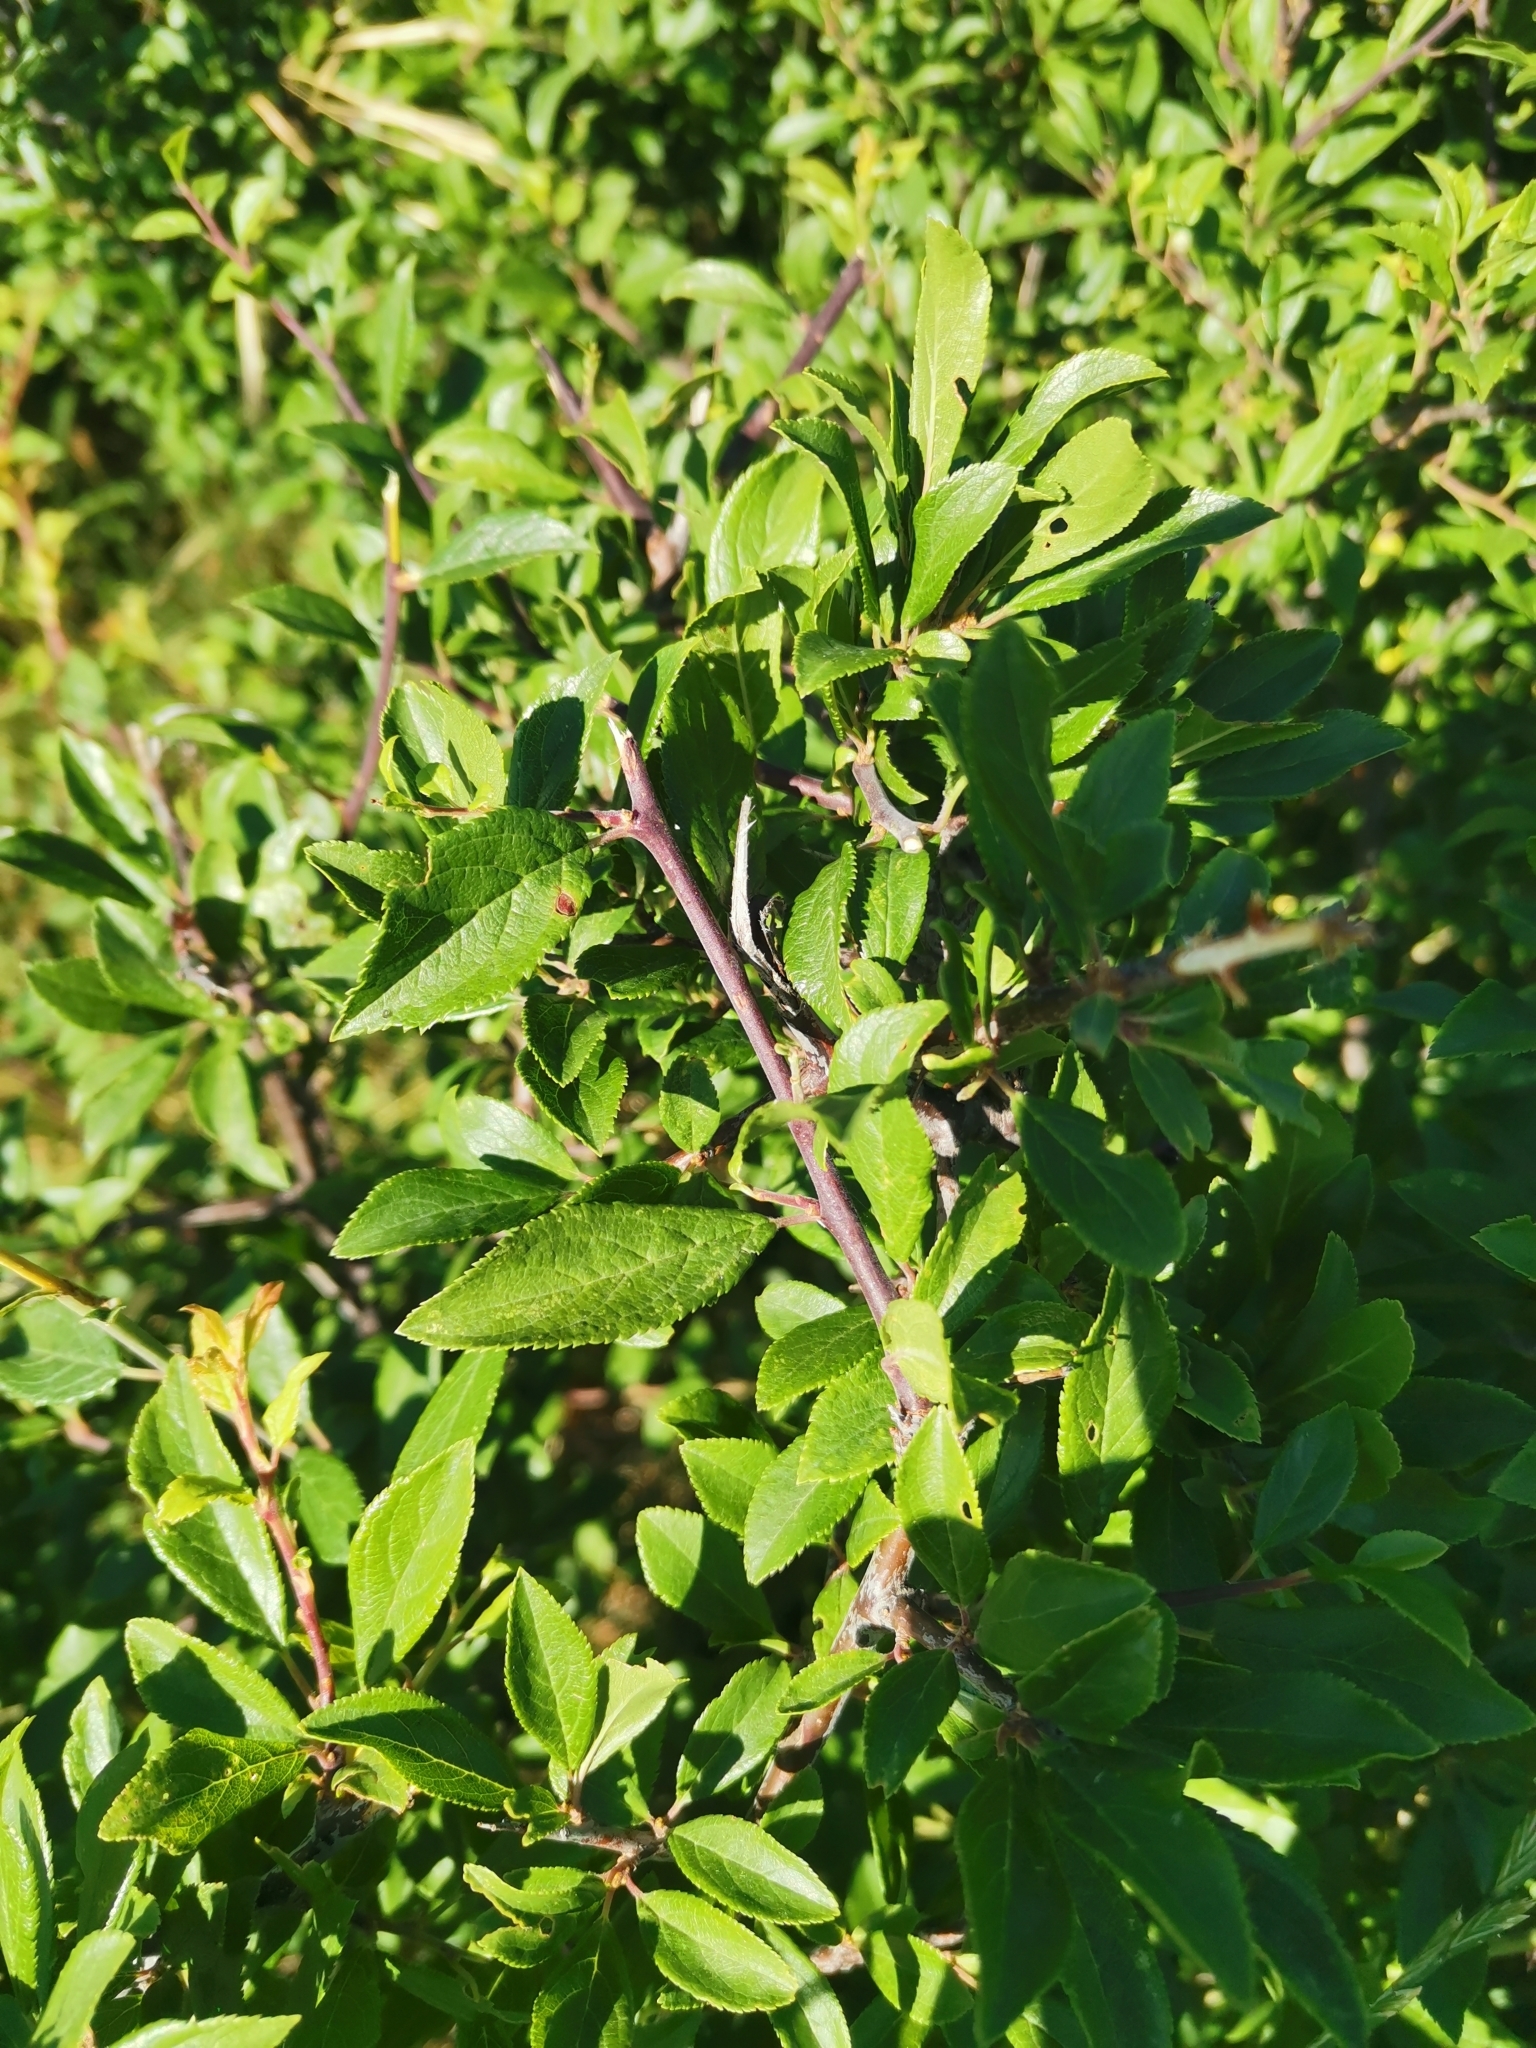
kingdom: Plantae
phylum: Tracheophyta
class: Magnoliopsida
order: Rosales
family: Rosaceae
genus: Prunus
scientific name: Prunus spinosa
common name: Blackthorn
